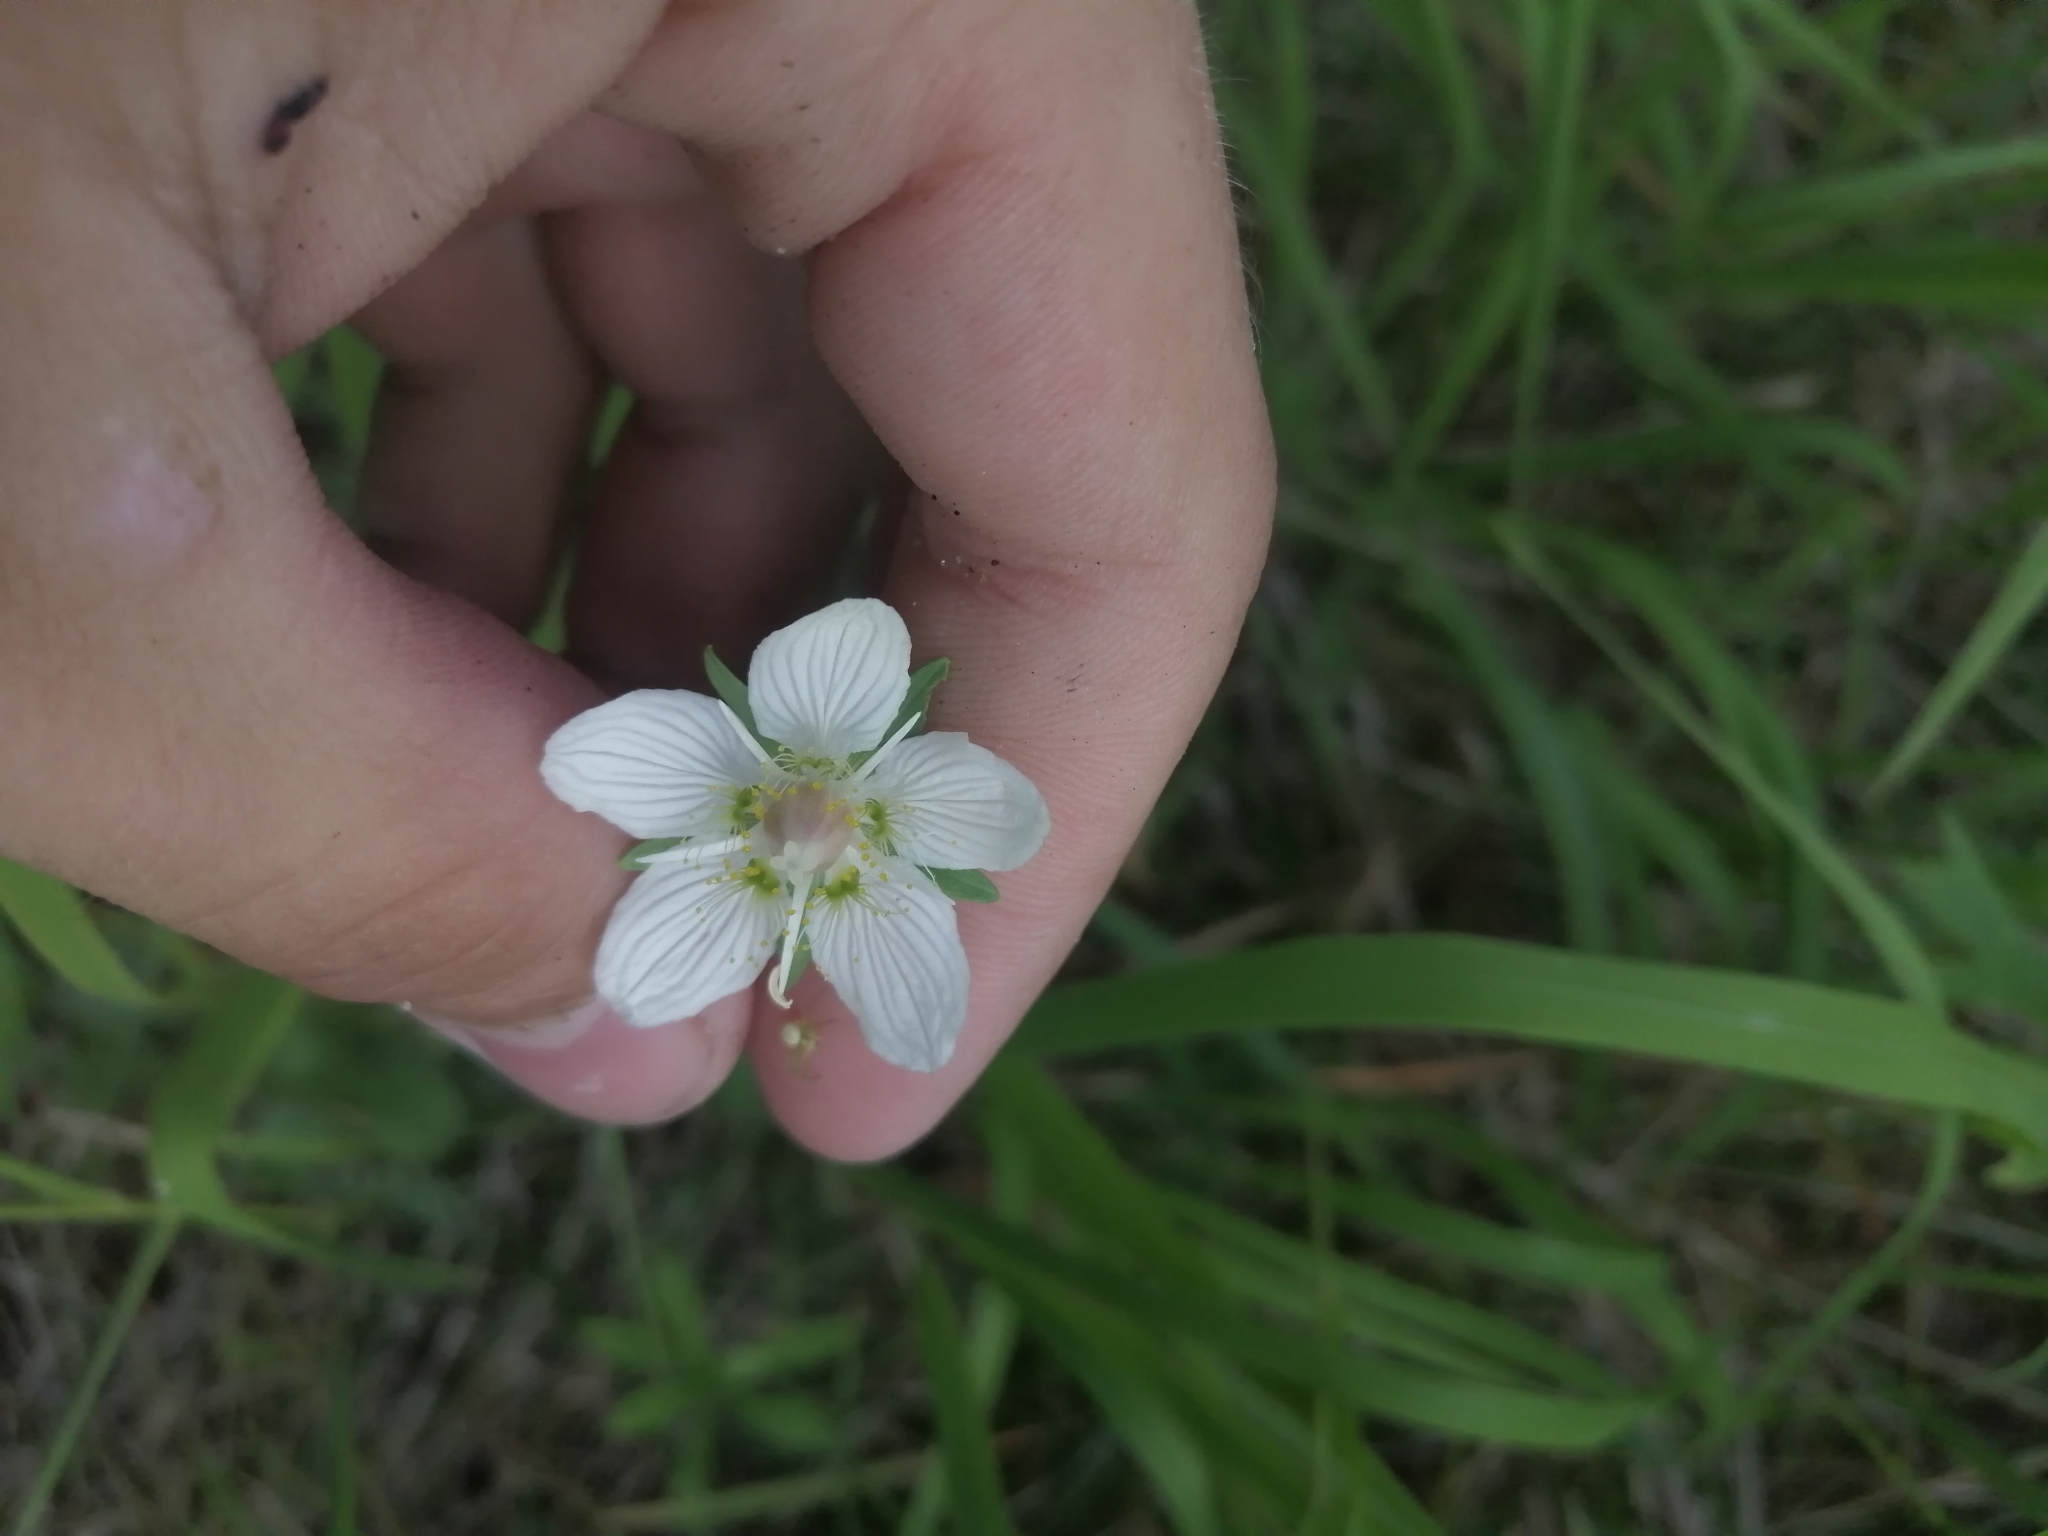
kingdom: Plantae
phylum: Tracheophyta
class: Magnoliopsida
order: Celastrales
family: Parnassiaceae
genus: Parnassia
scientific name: Parnassia palustris
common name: Grass-of-parnassus
